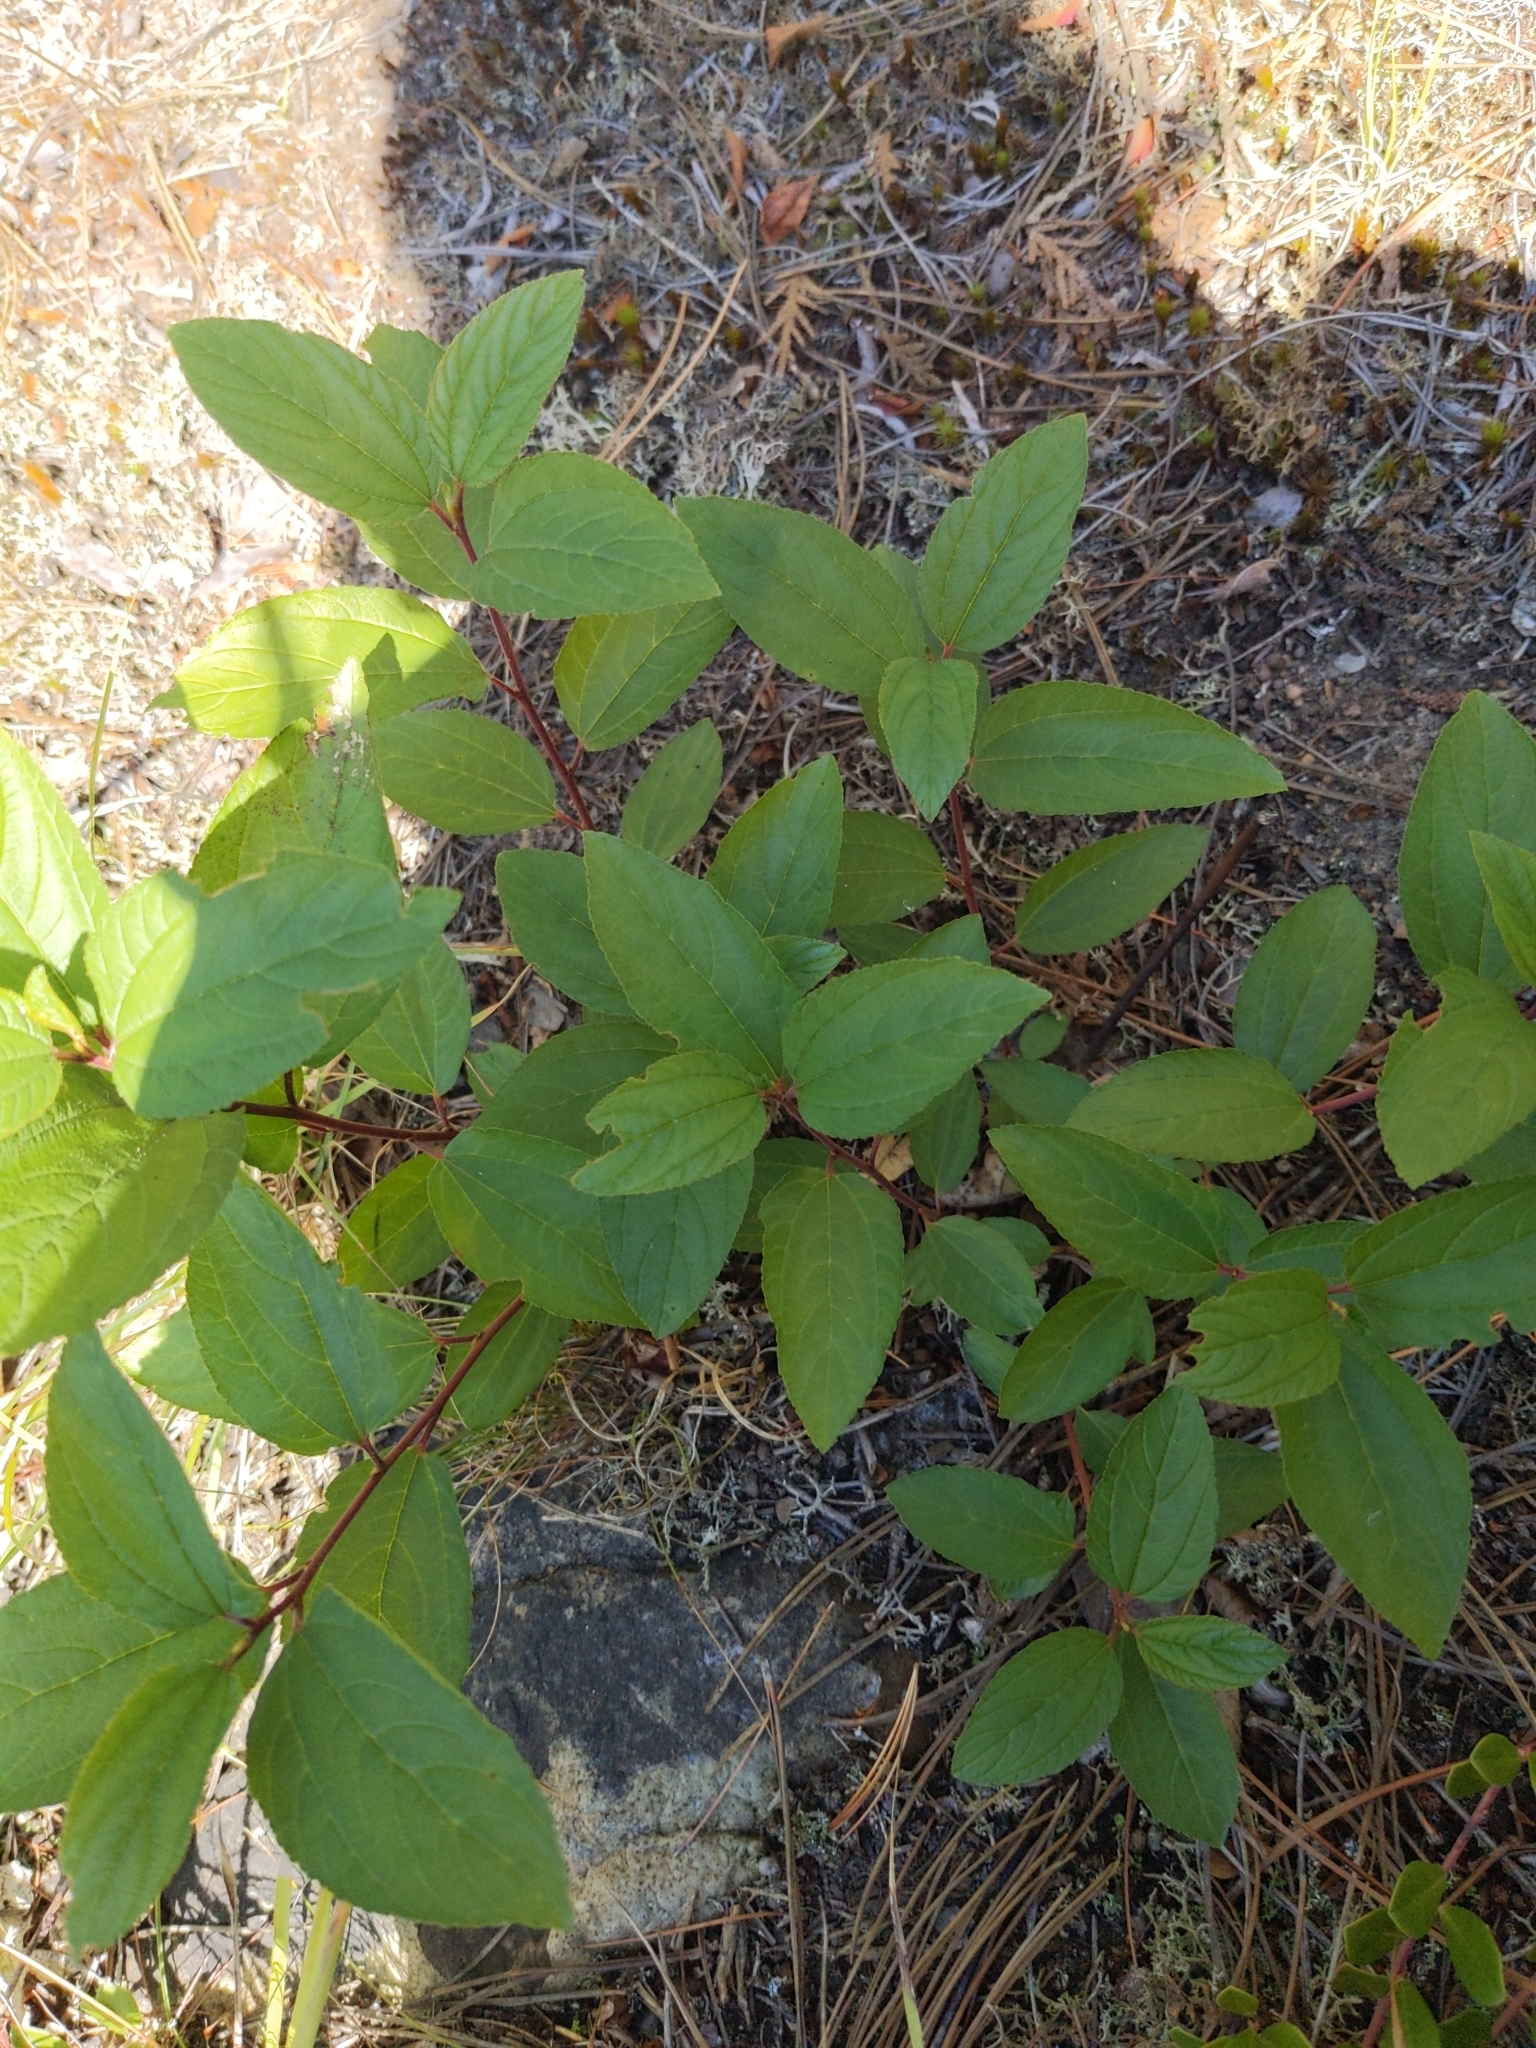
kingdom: Plantae
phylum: Tracheophyta
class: Magnoliopsida
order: Rosales
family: Rhamnaceae
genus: Ceanothus
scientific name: Ceanothus americanus
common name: Redroot
